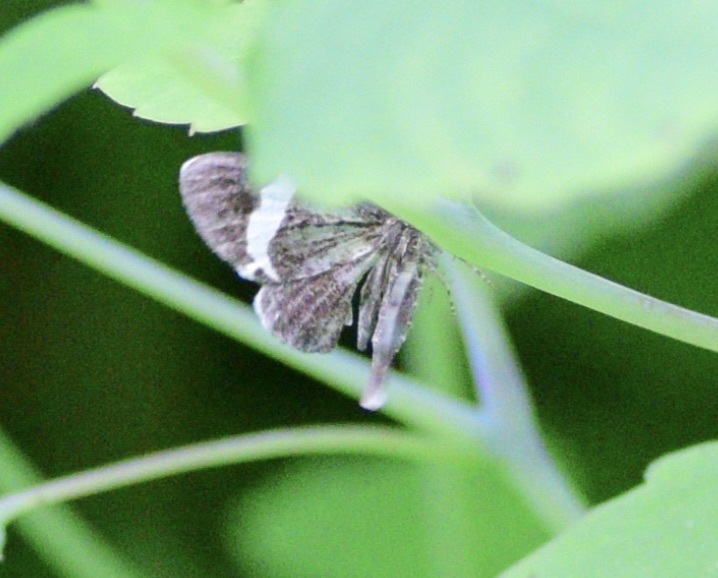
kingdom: Animalia
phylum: Arthropoda
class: Insecta
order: Lepidoptera
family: Geometridae
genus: Trichodezia
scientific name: Trichodezia albovittata
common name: White striped black
